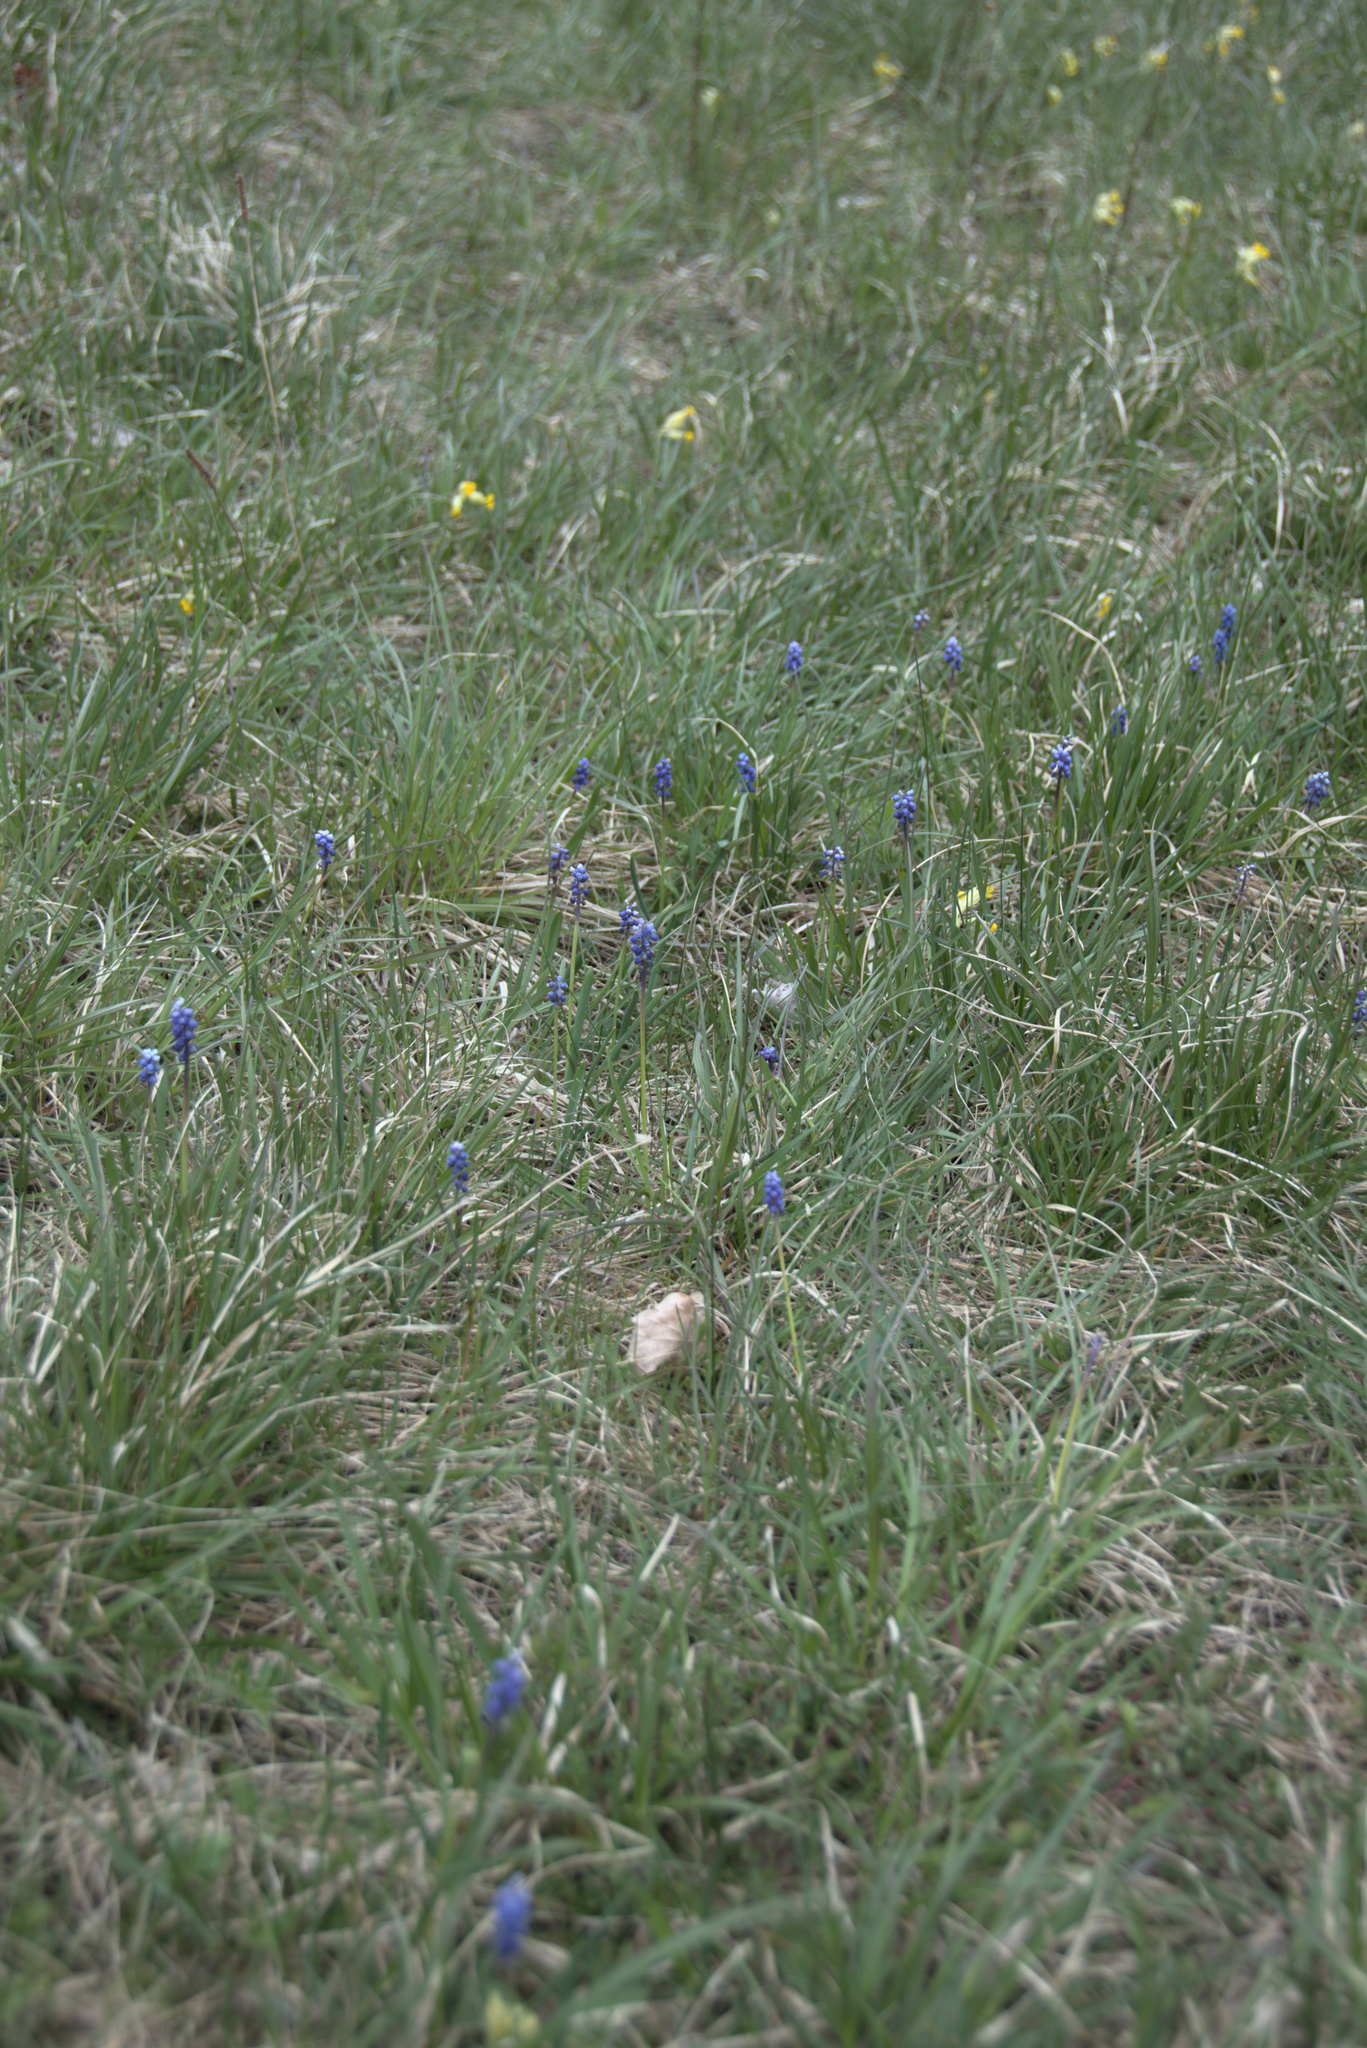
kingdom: Plantae
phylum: Tracheophyta
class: Liliopsida
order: Asparagales
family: Asparagaceae
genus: Muscari
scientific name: Muscari botryoides
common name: Compact grape-hyacinth
